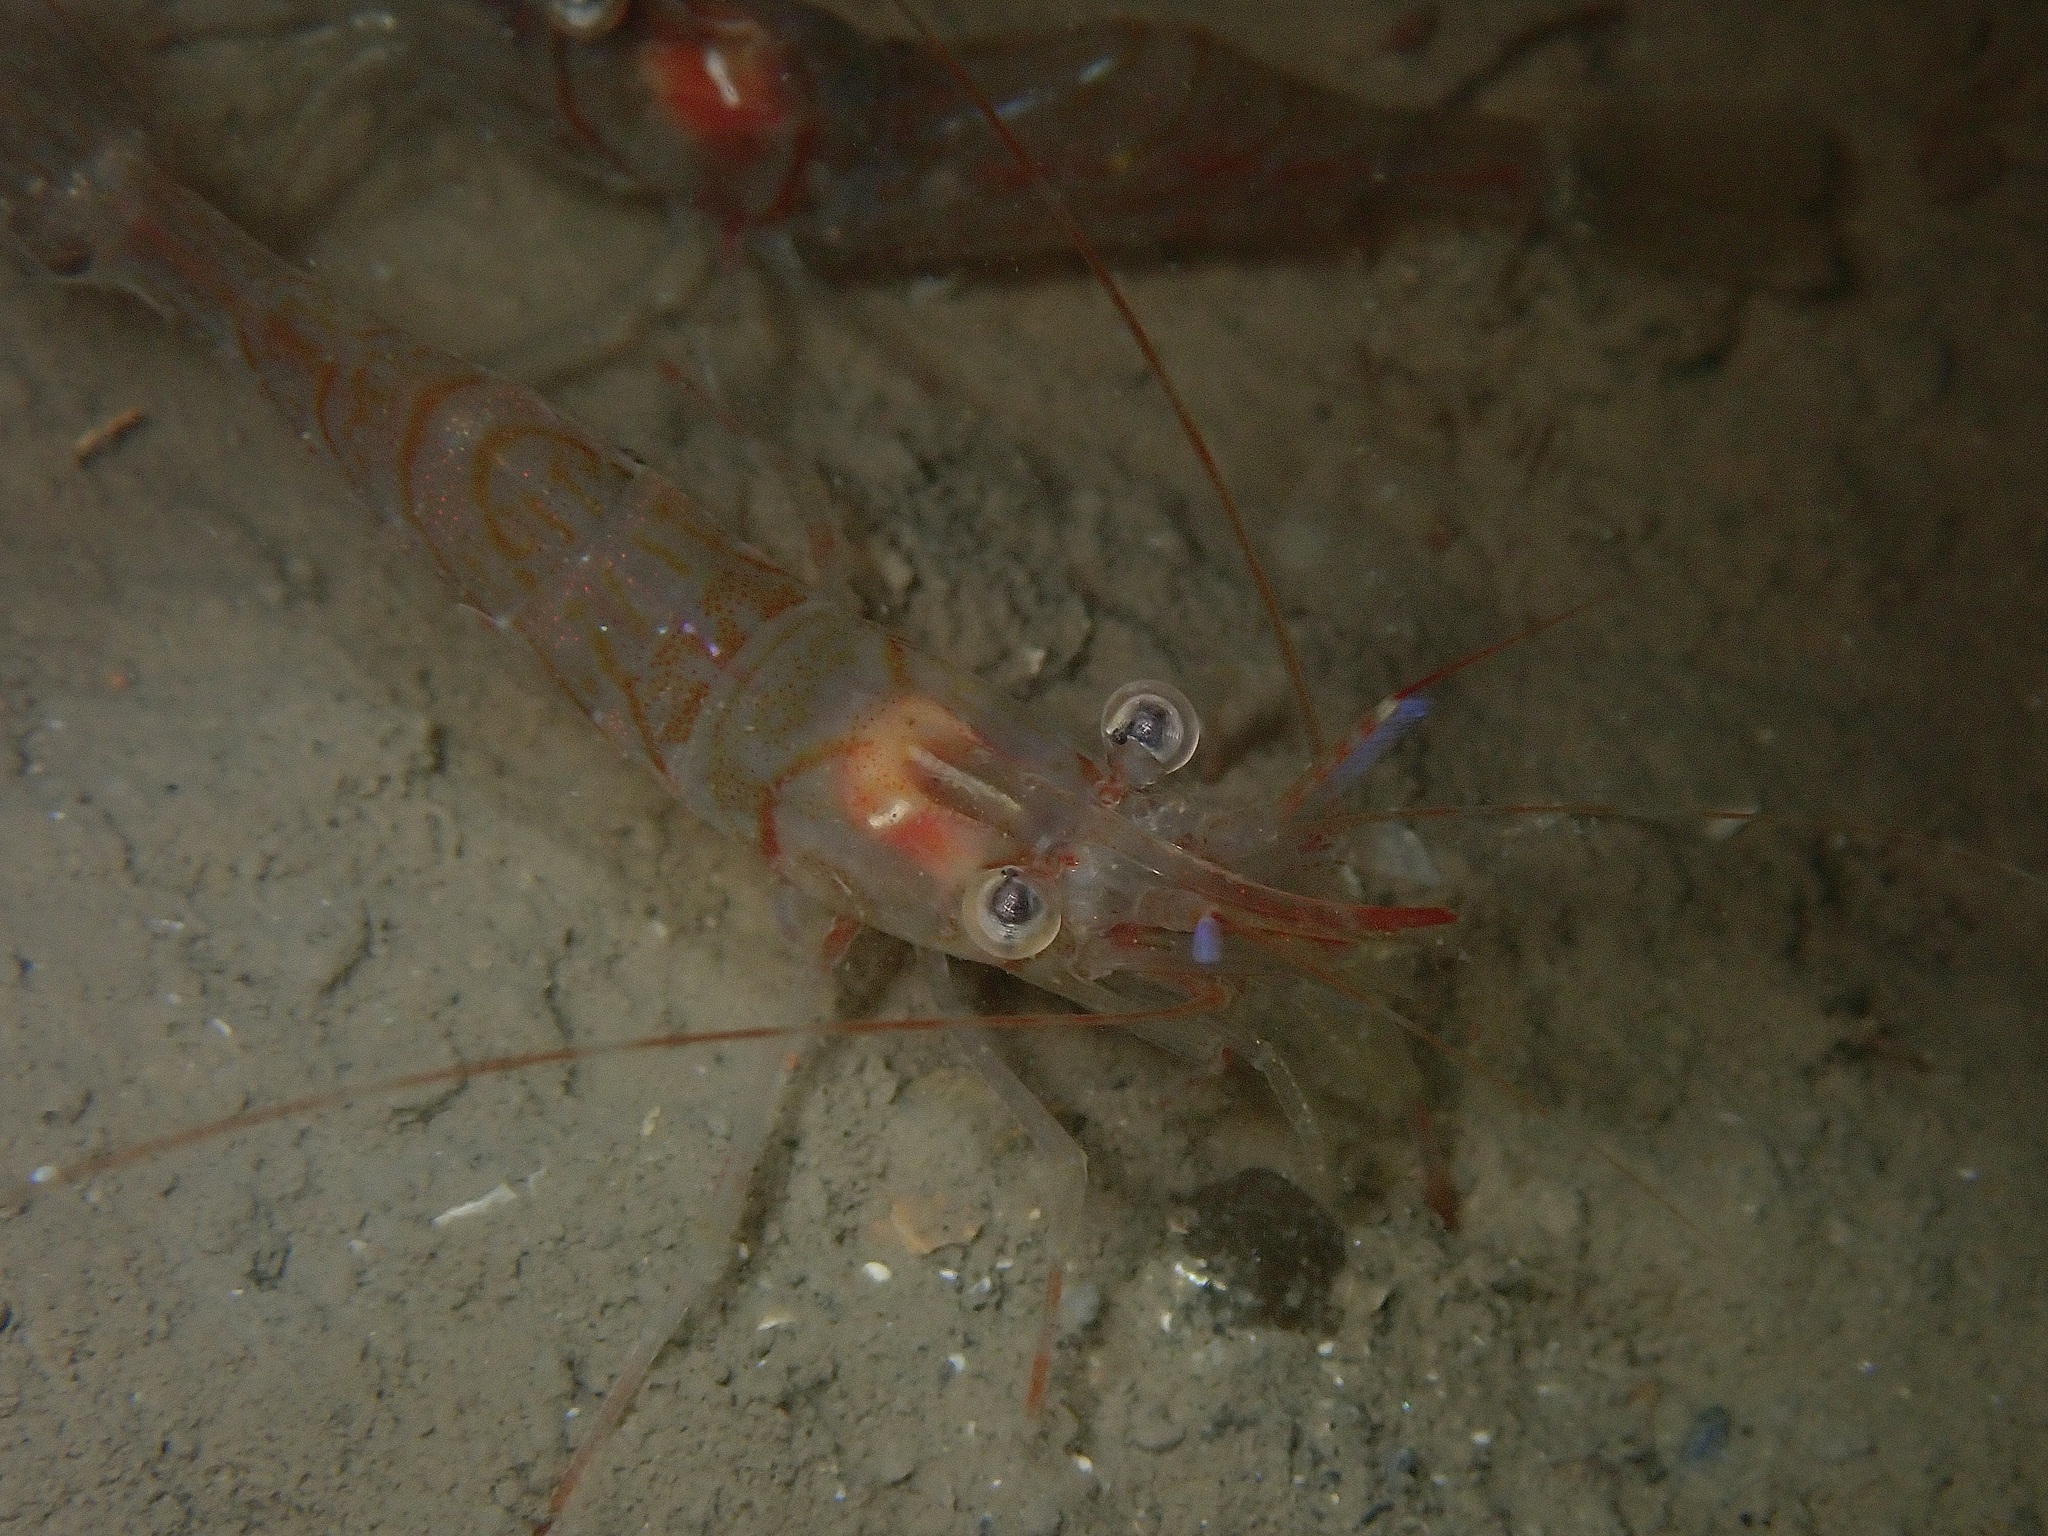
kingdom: Animalia
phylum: Arthropoda
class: Malacostraca
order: Decapoda
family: Pandalidae
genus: Pandalus
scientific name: Pandalus montagui
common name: Pink shrimp
